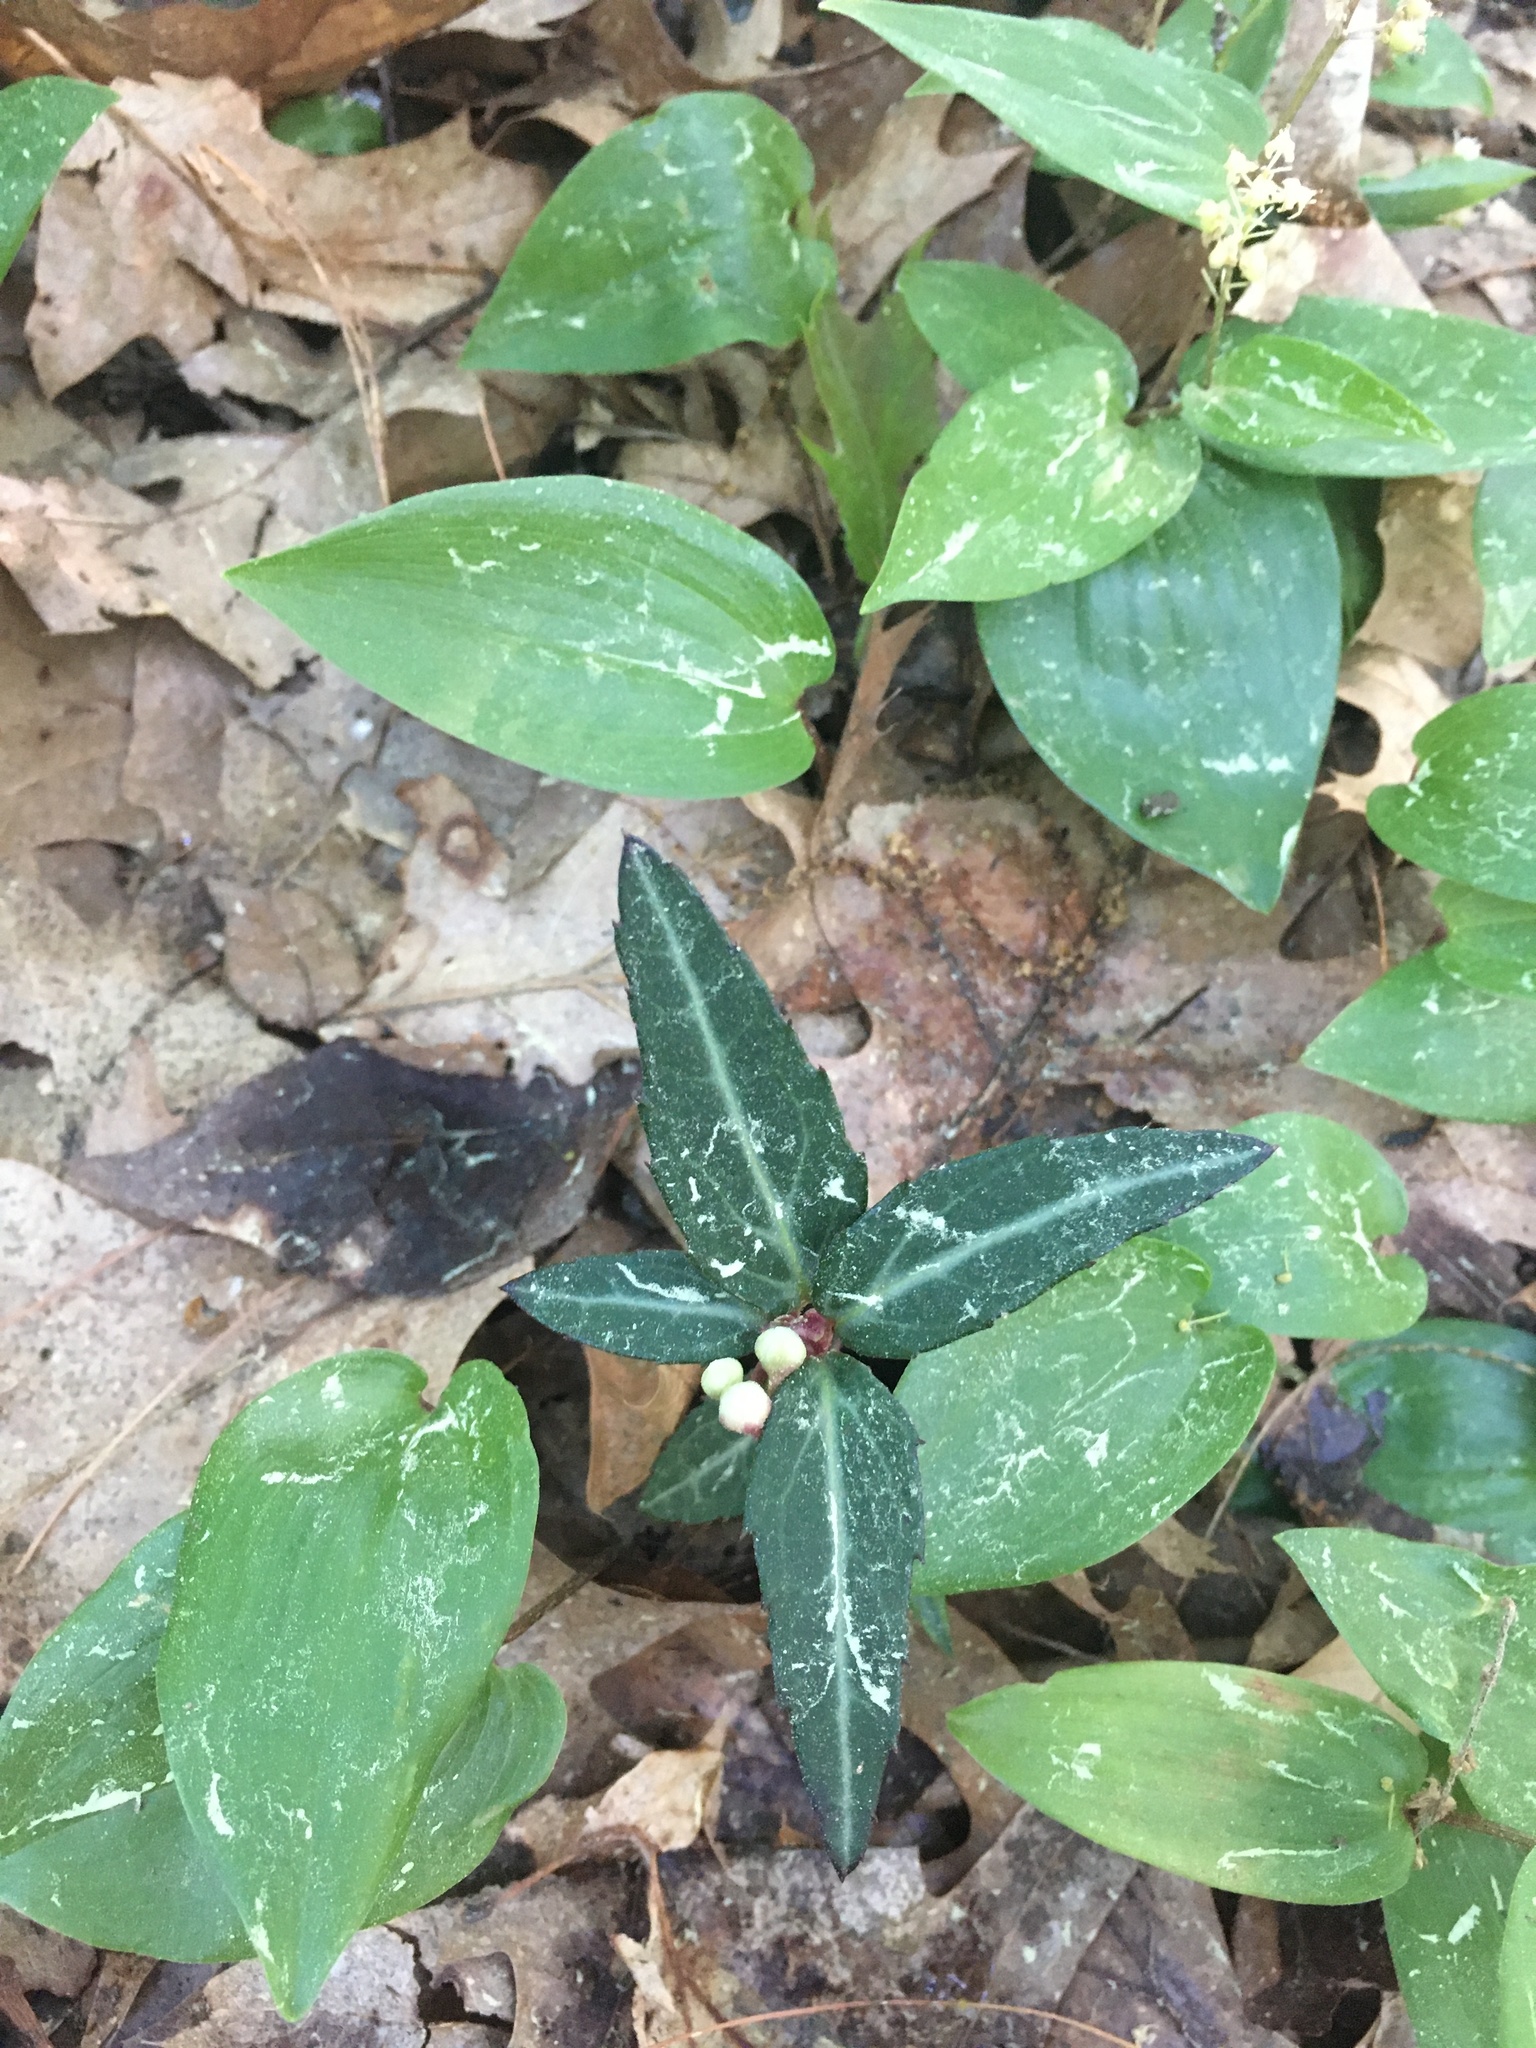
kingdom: Plantae
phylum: Tracheophyta
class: Magnoliopsida
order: Ericales
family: Ericaceae
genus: Chimaphila
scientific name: Chimaphila maculata
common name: Spotted pipsissewa
